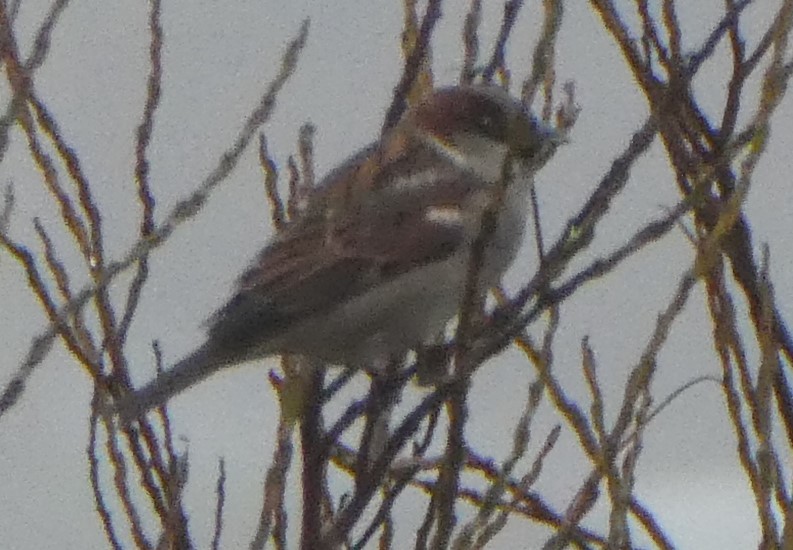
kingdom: Animalia
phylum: Chordata
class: Aves
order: Passeriformes
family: Passeridae
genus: Passer
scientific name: Passer domesticus
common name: House sparrow
